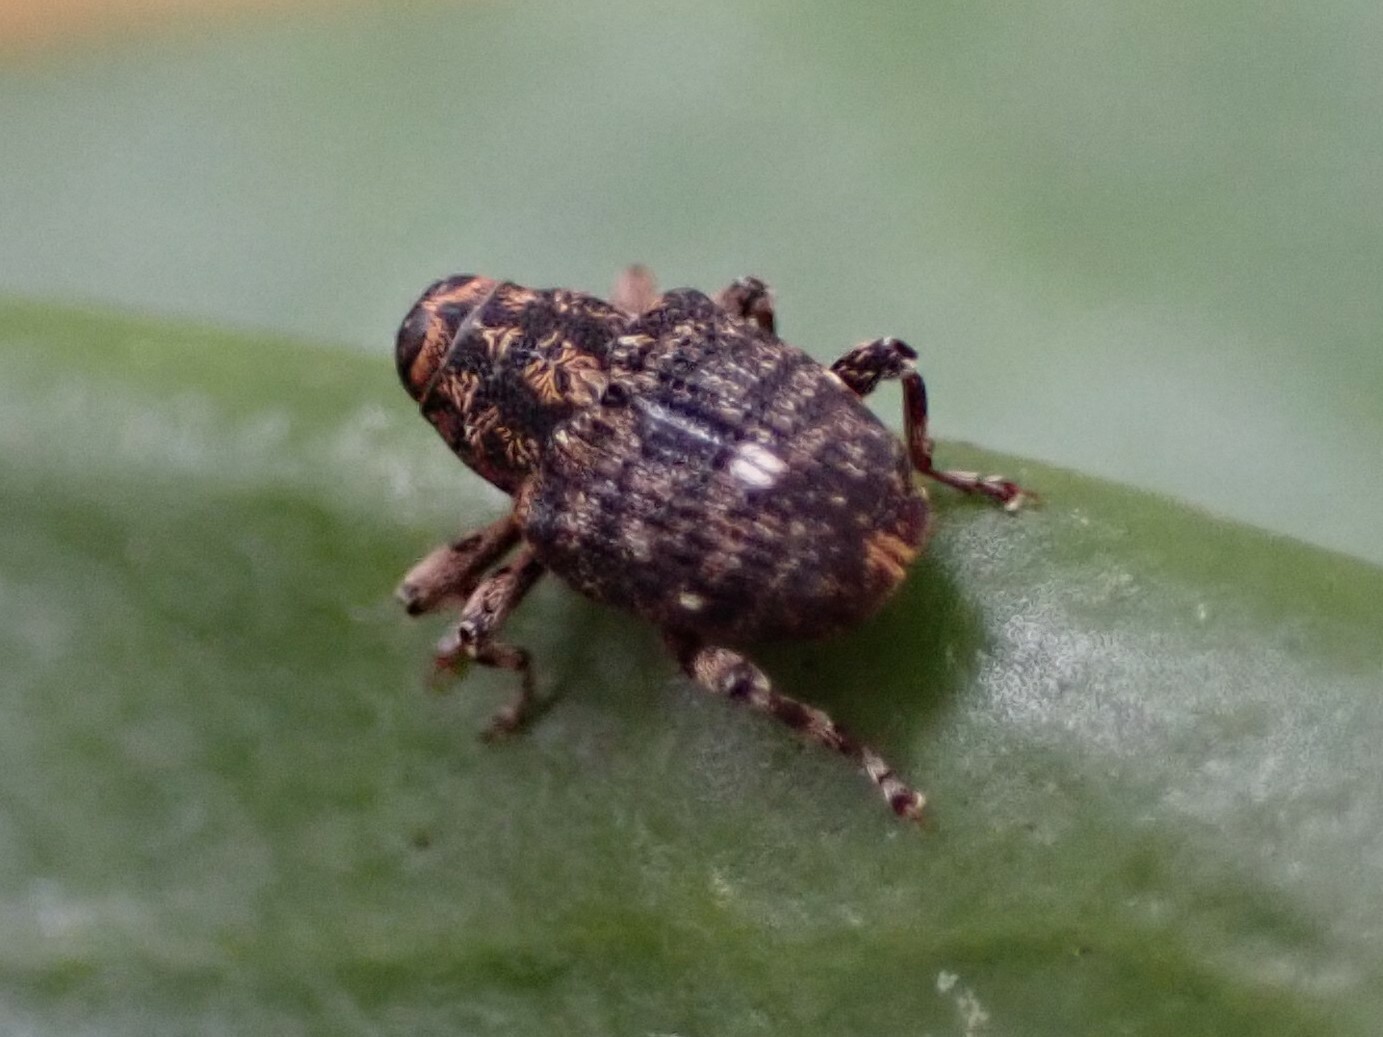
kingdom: Animalia
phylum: Arthropoda
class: Insecta
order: Coleoptera
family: Curculionidae
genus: Lechriops
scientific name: Lechriops oculatus
